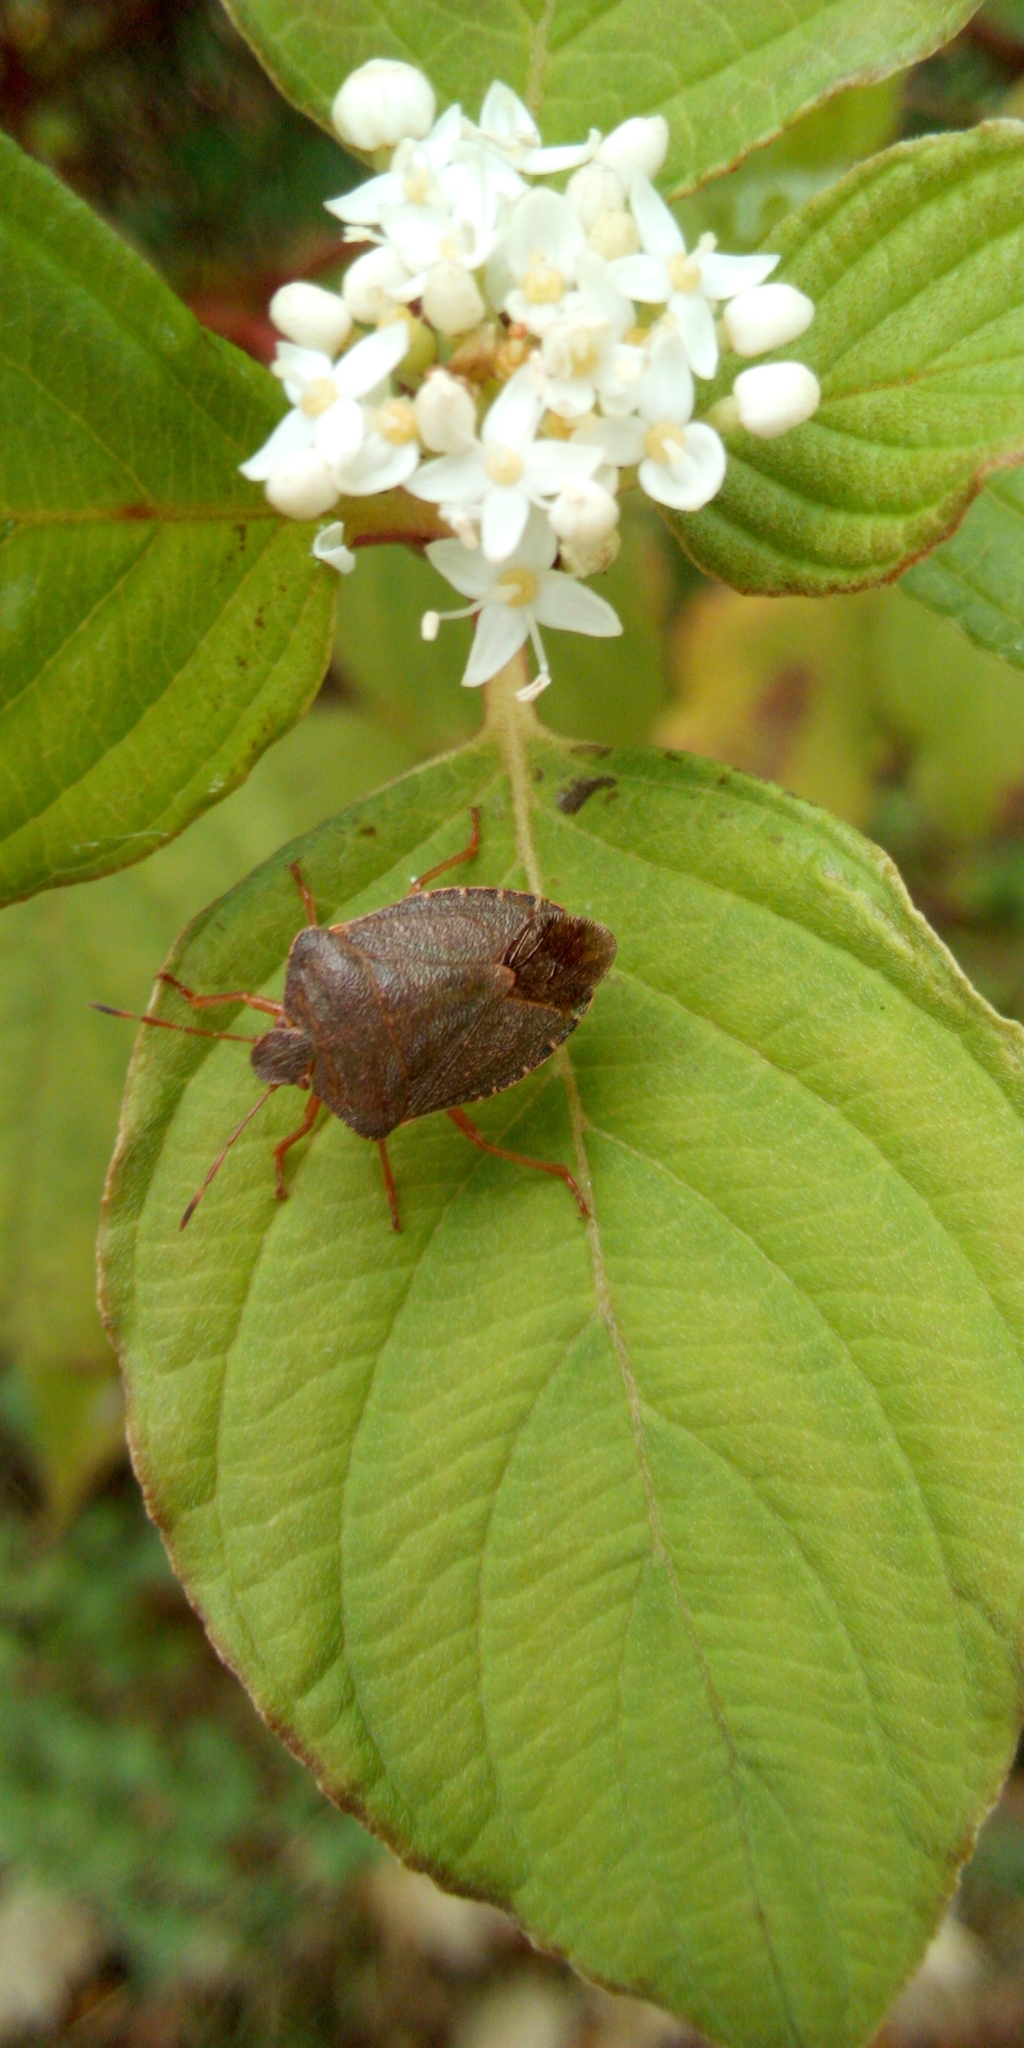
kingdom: Animalia
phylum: Arthropoda
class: Insecta
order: Hemiptera
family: Pentatomidae
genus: Palomena
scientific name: Palomena prasina
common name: Green shieldbug
